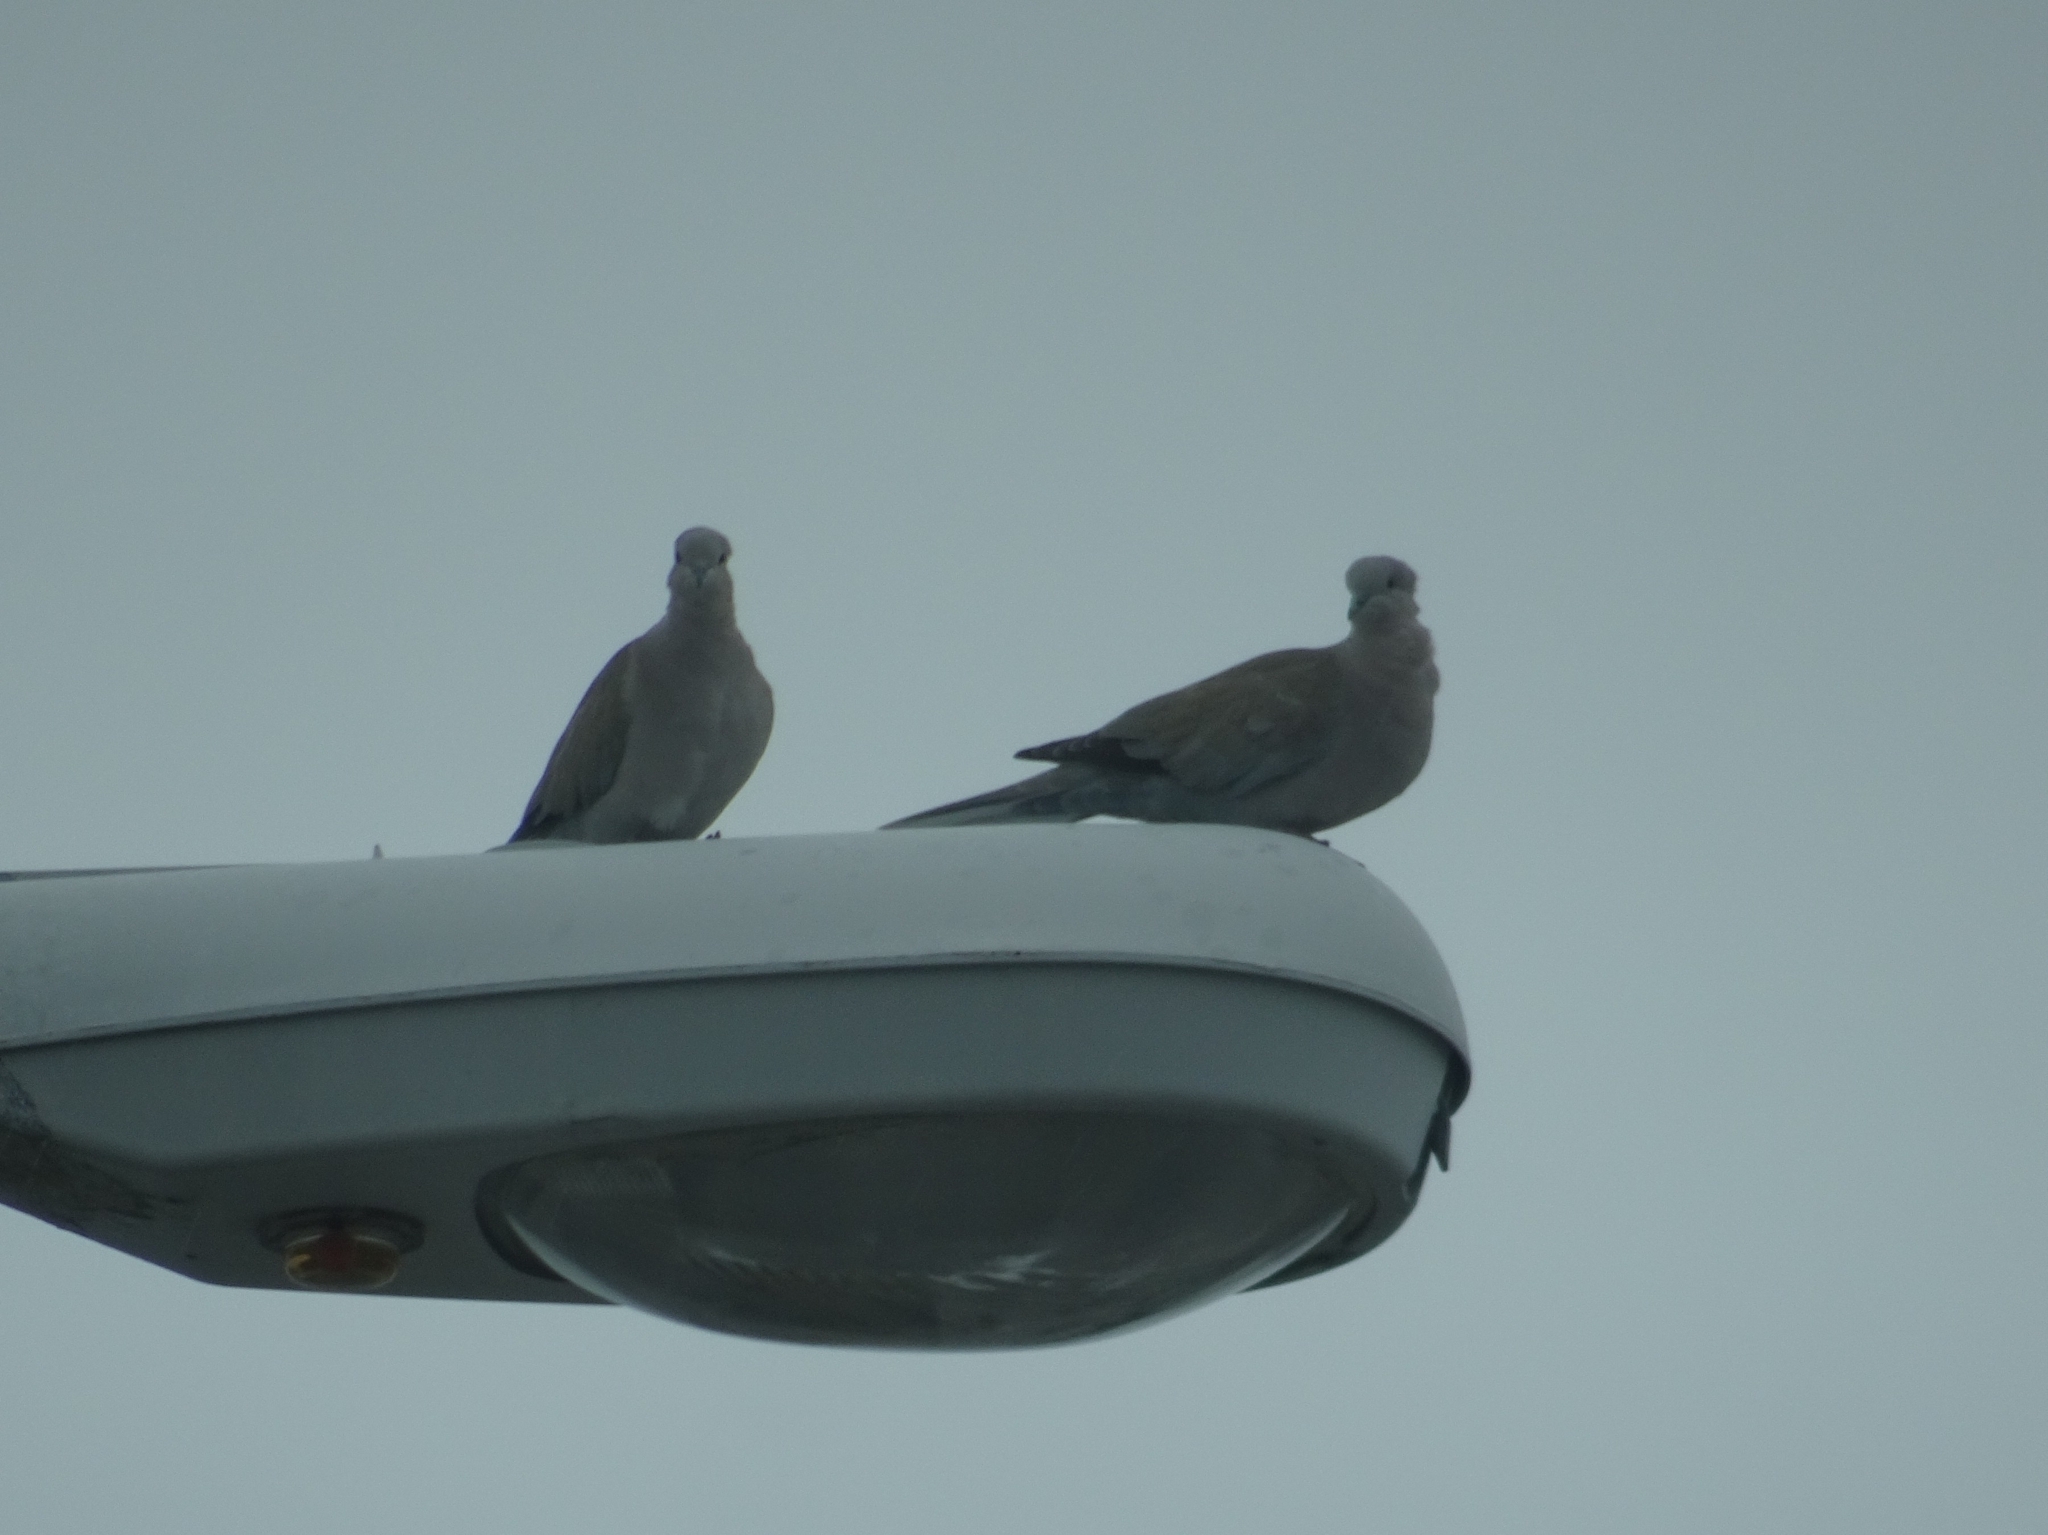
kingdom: Animalia
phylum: Chordata
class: Aves
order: Columbiformes
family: Columbidae
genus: Streptopelia
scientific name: Streptopelia decaocto
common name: Eurasian collared dove
